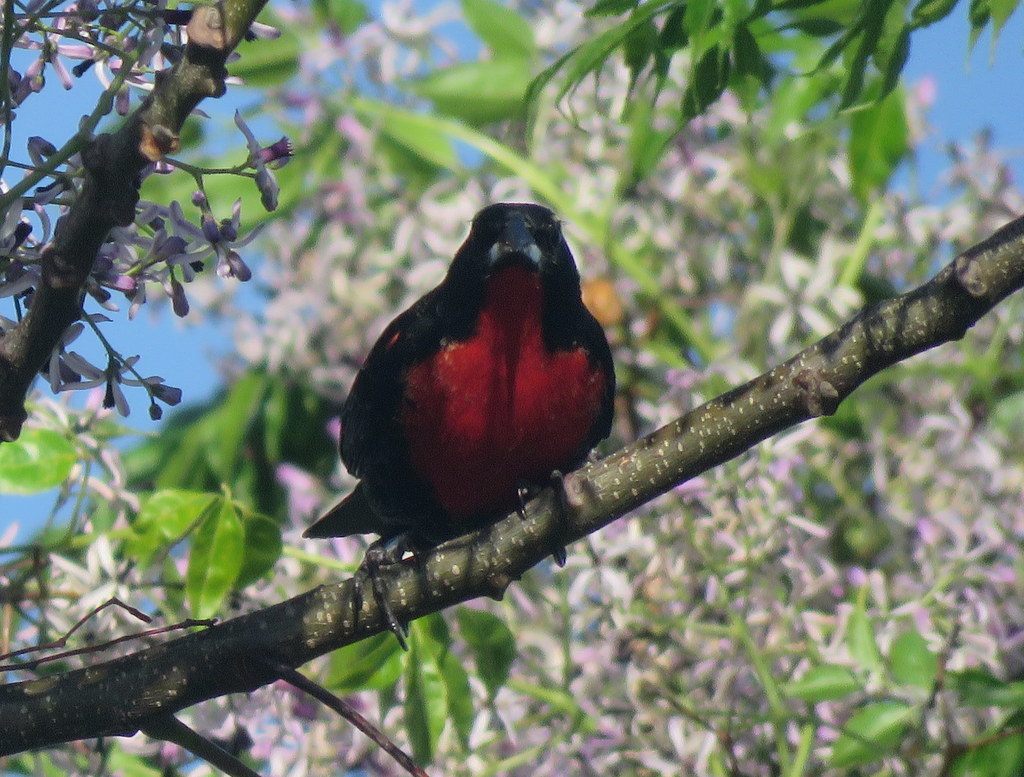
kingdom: Animalia
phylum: Chordata
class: Aves
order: Passeriformes
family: Icteridae
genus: Sturnella
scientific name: Sturnella superciliaris
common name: White-browed blackbird
